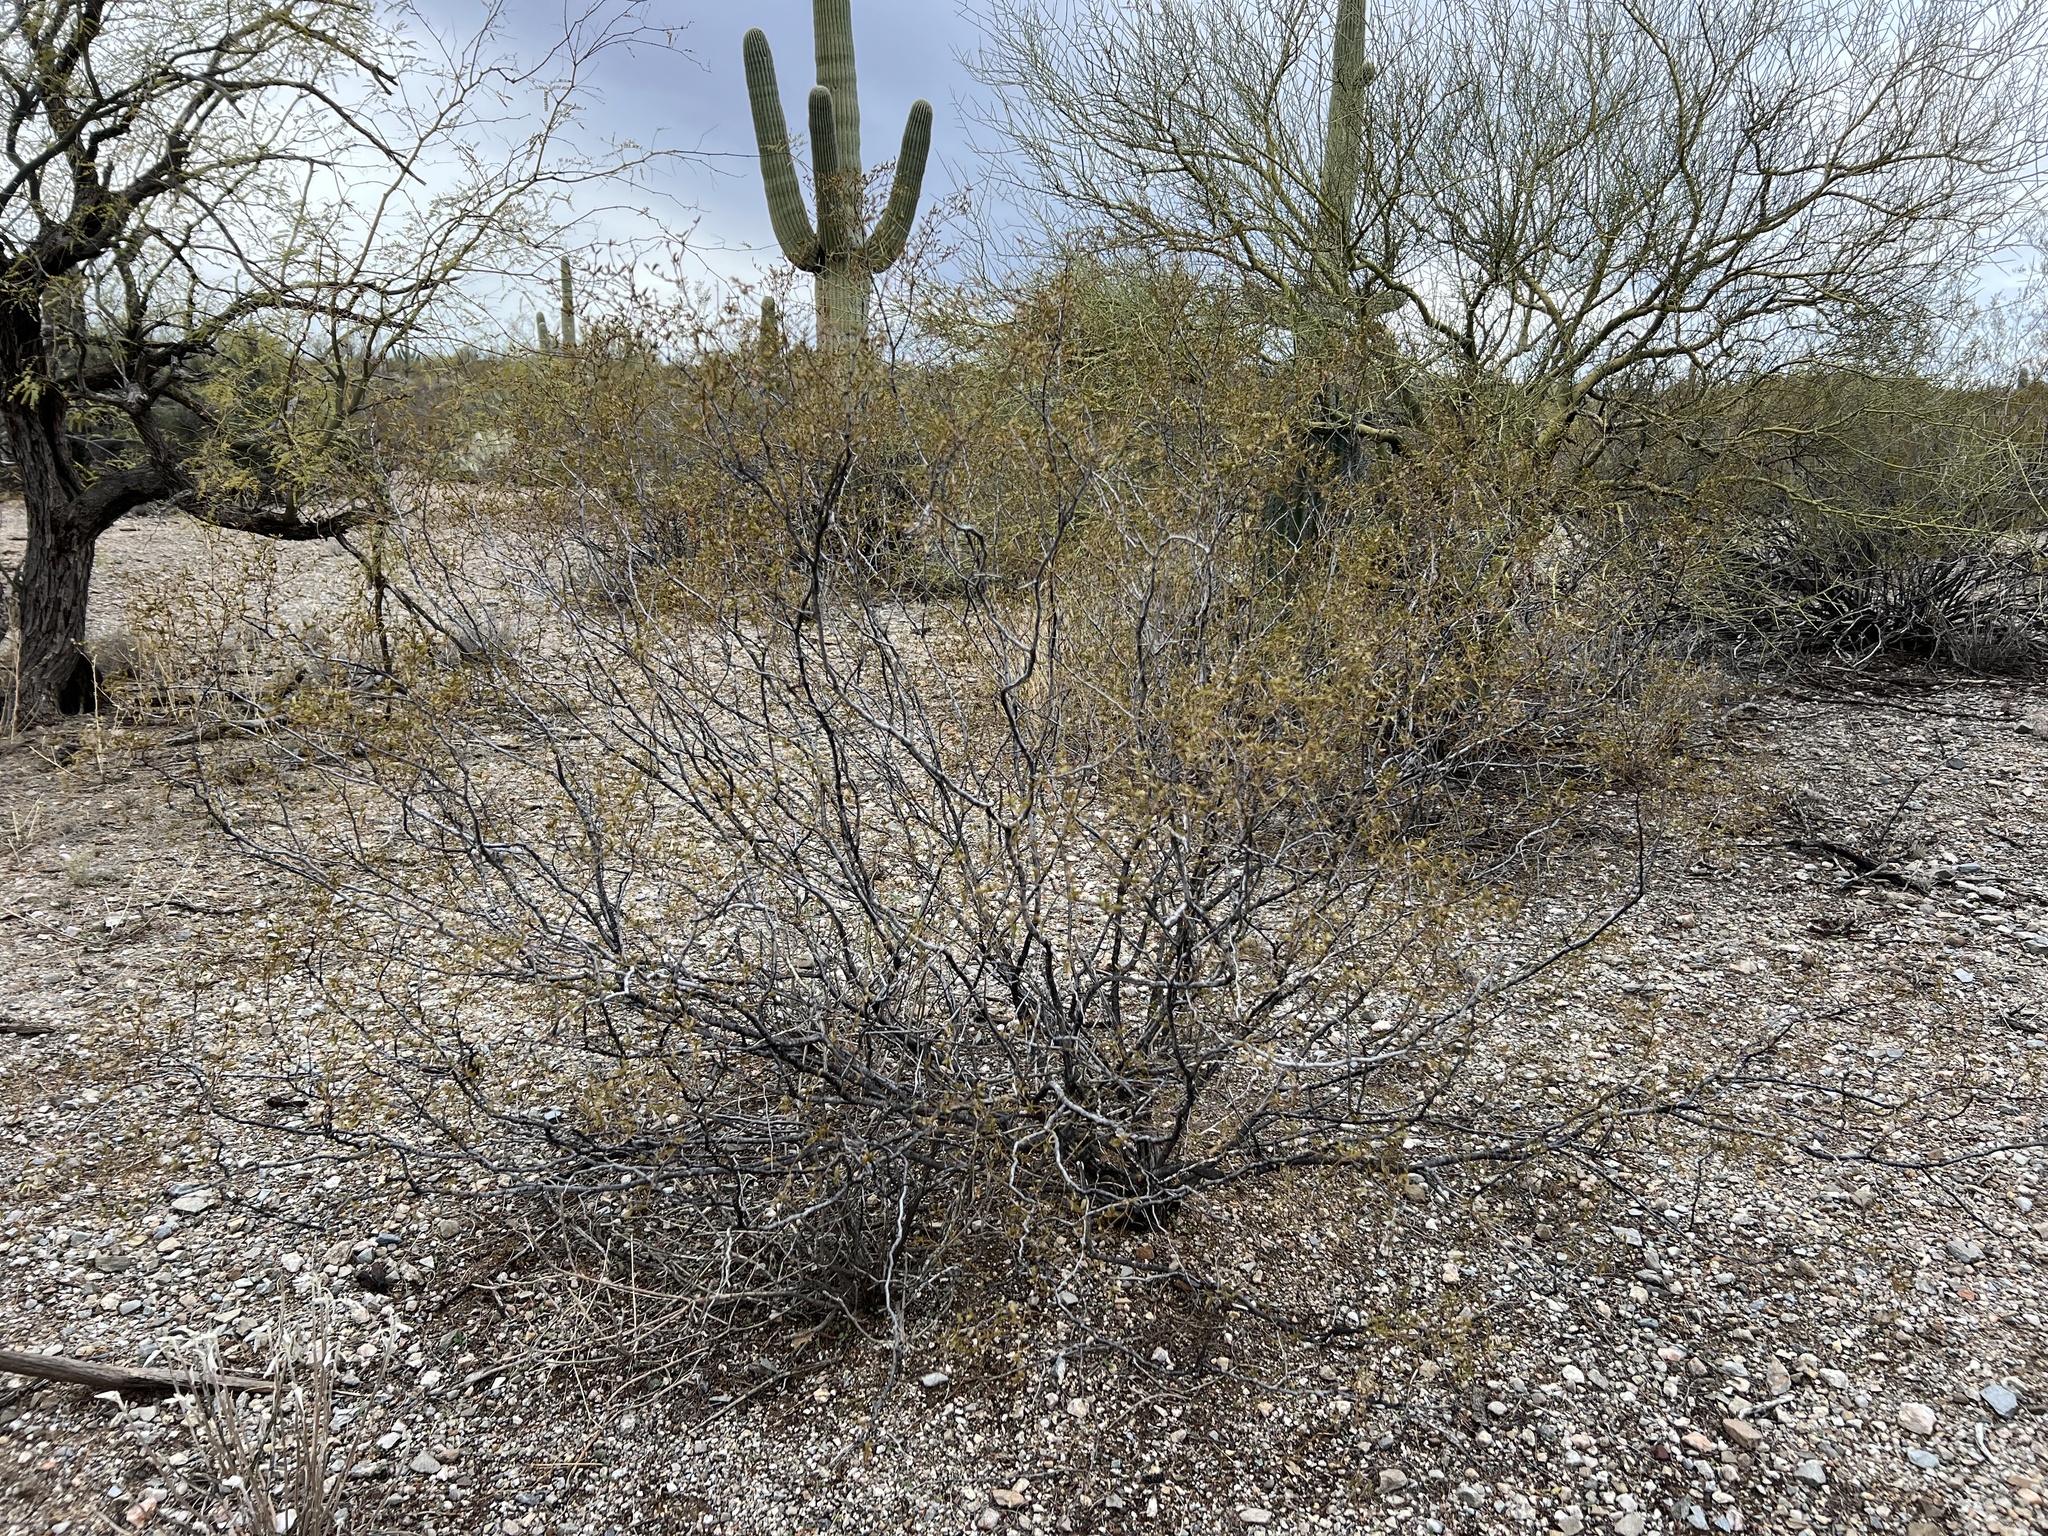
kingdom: Plantae
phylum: Tracheophyta
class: Magnoliopsida
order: Zygophyllales
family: Zygophyllaceae
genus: Larrea
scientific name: Larrea tridentata
